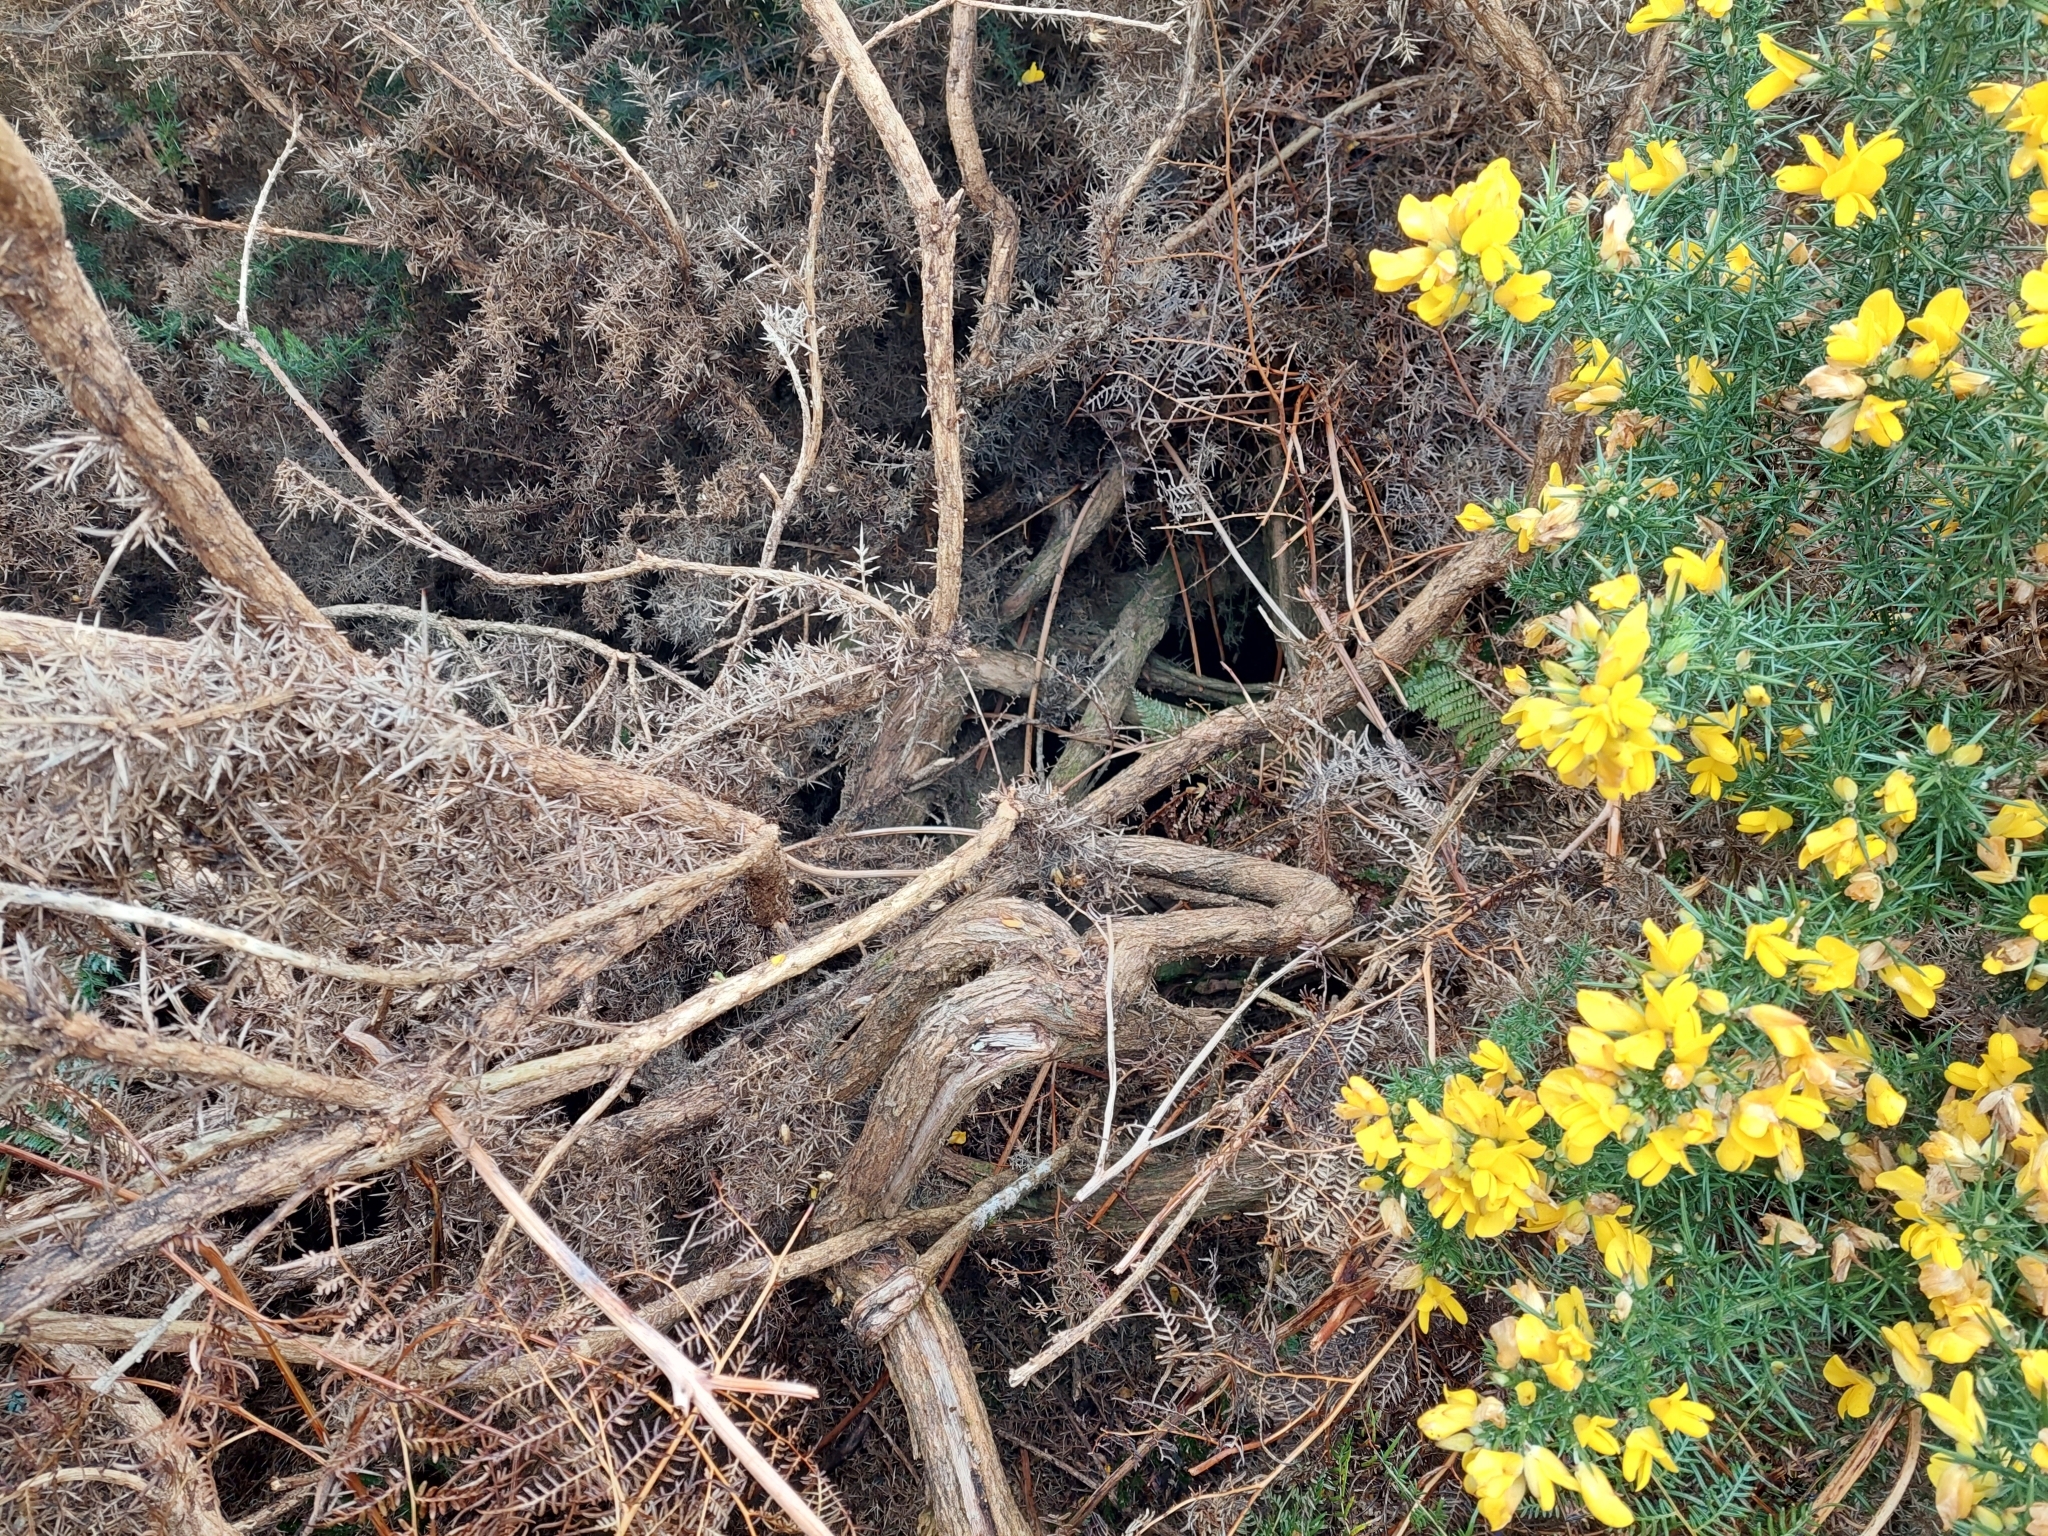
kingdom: Plantae
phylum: Tracheophyta
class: Magnoliopsida
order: Fabales
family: Fabaceae
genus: Ulex
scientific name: Ulex europaeus
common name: Common gorse
